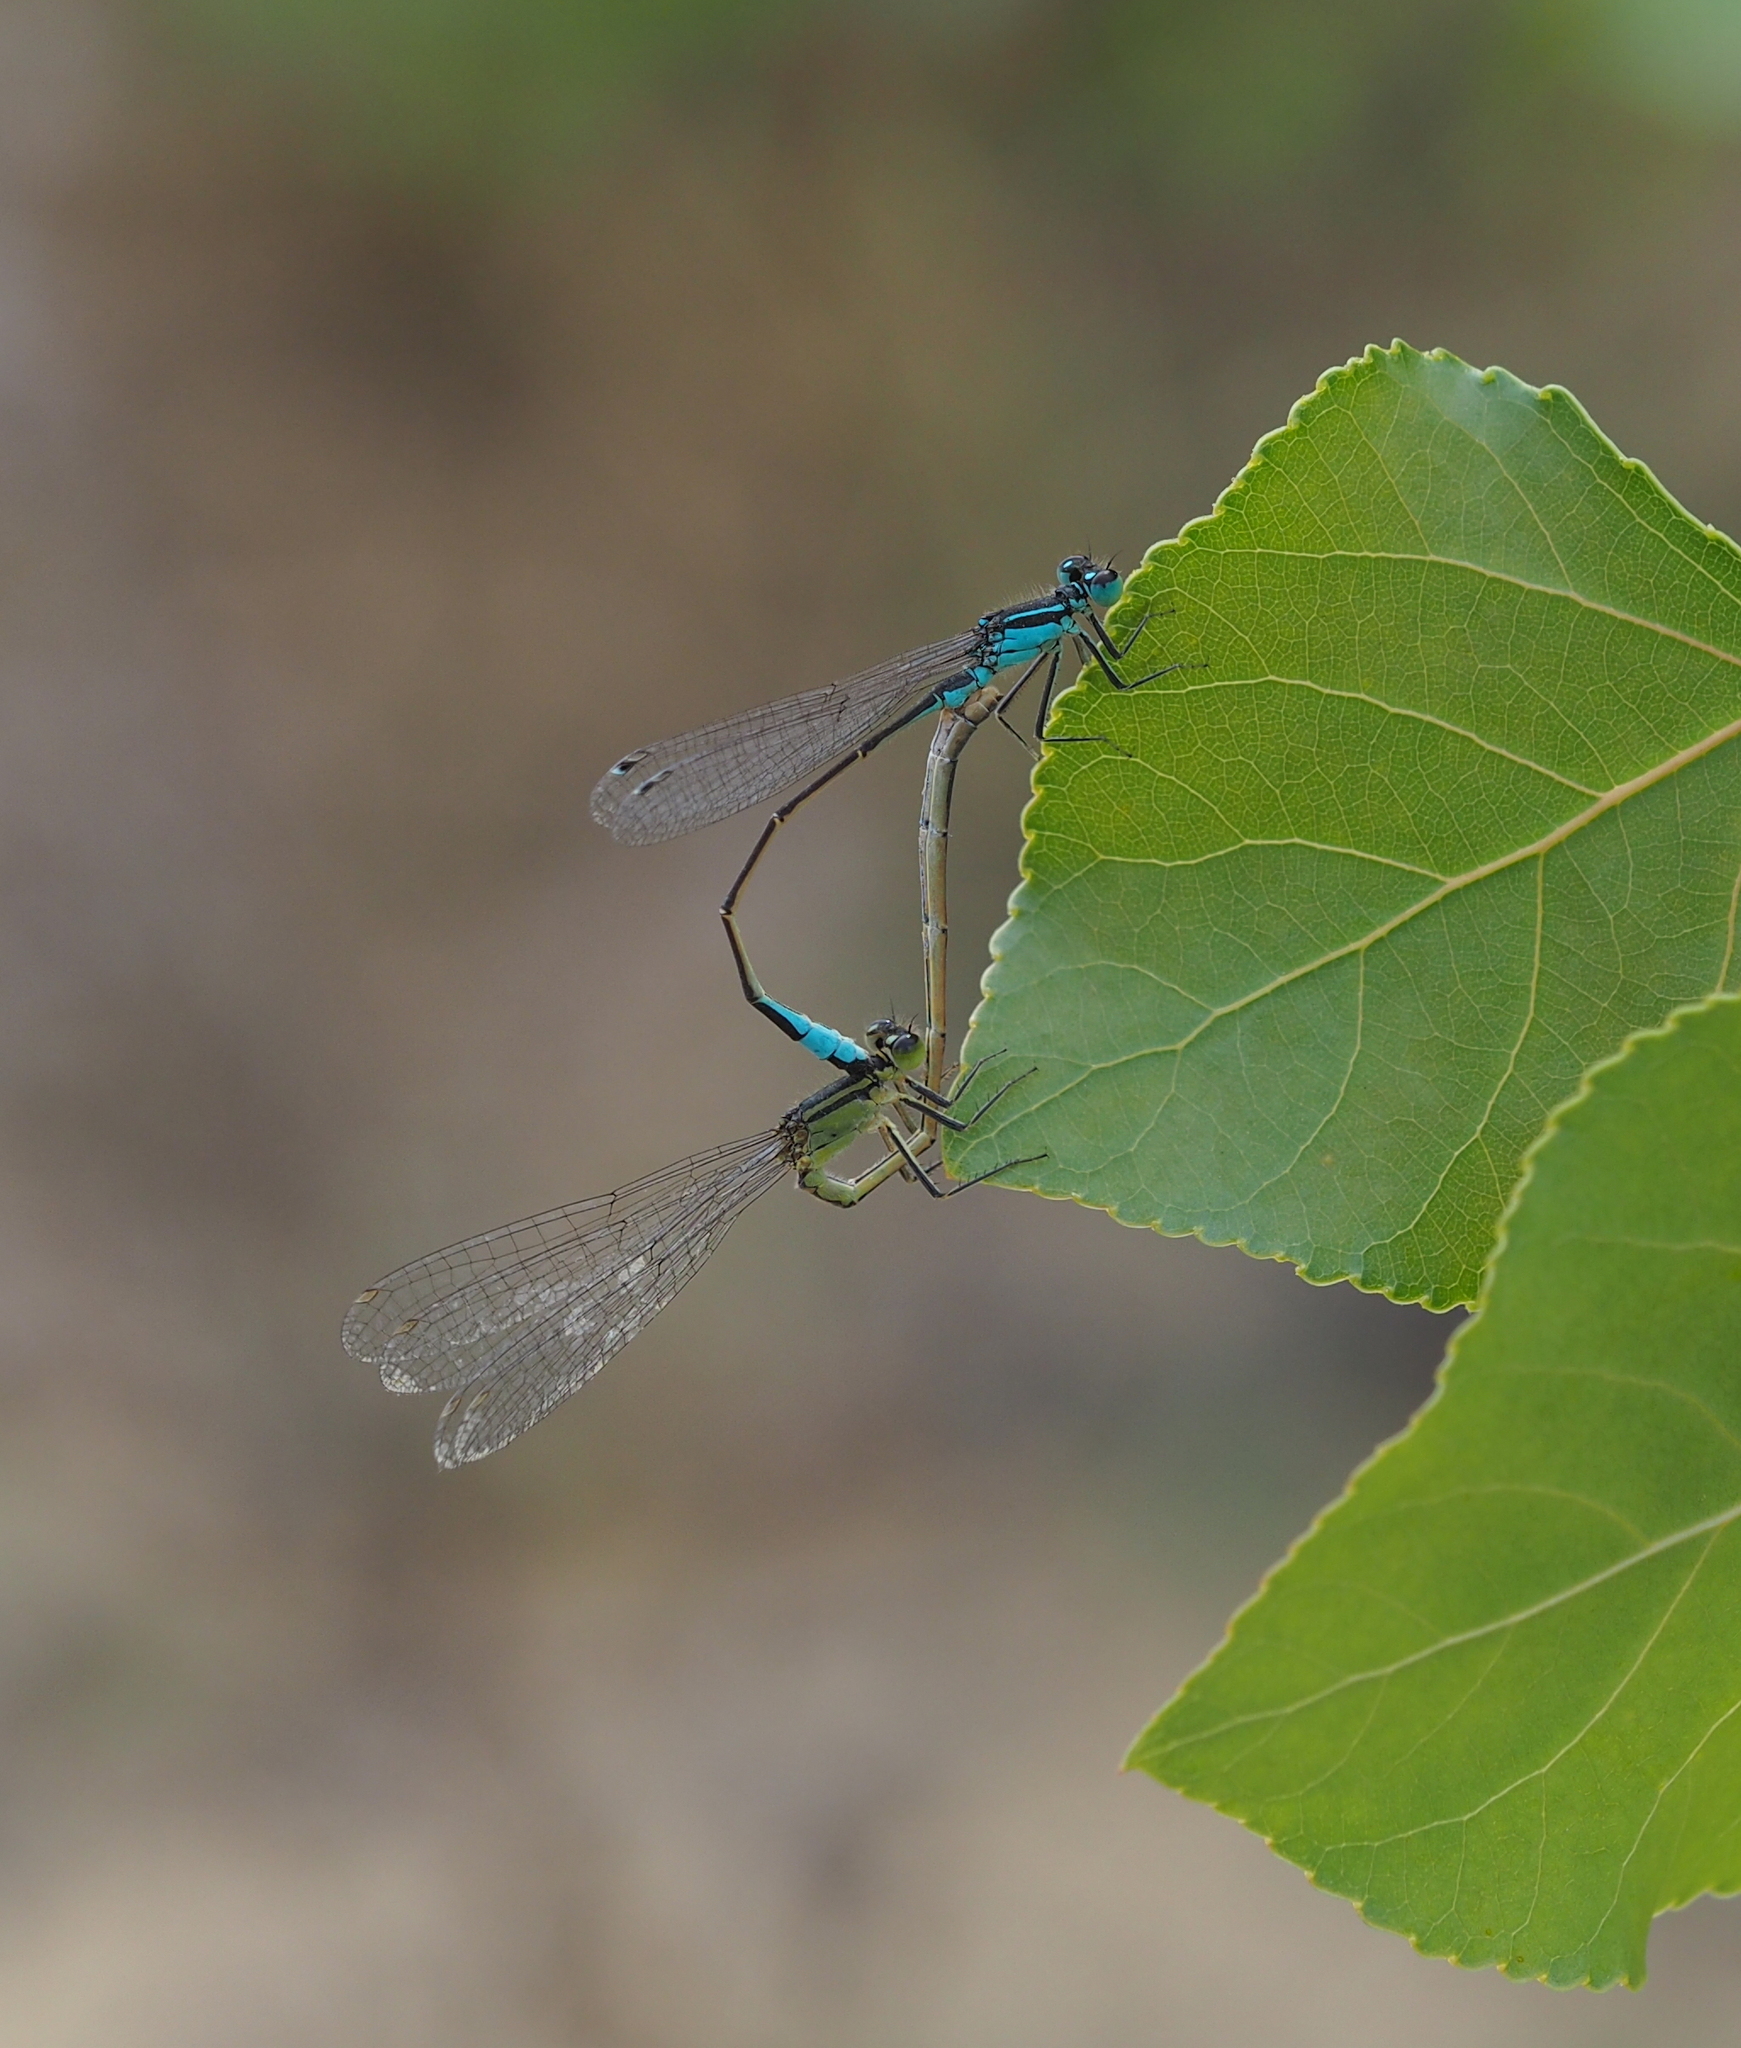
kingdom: Animalia
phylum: Arthropoda
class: Insecta
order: Odonata
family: Coenagrionidae
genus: Ischnura
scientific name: Ischnura elegans
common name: Blue-tailed damselfly
